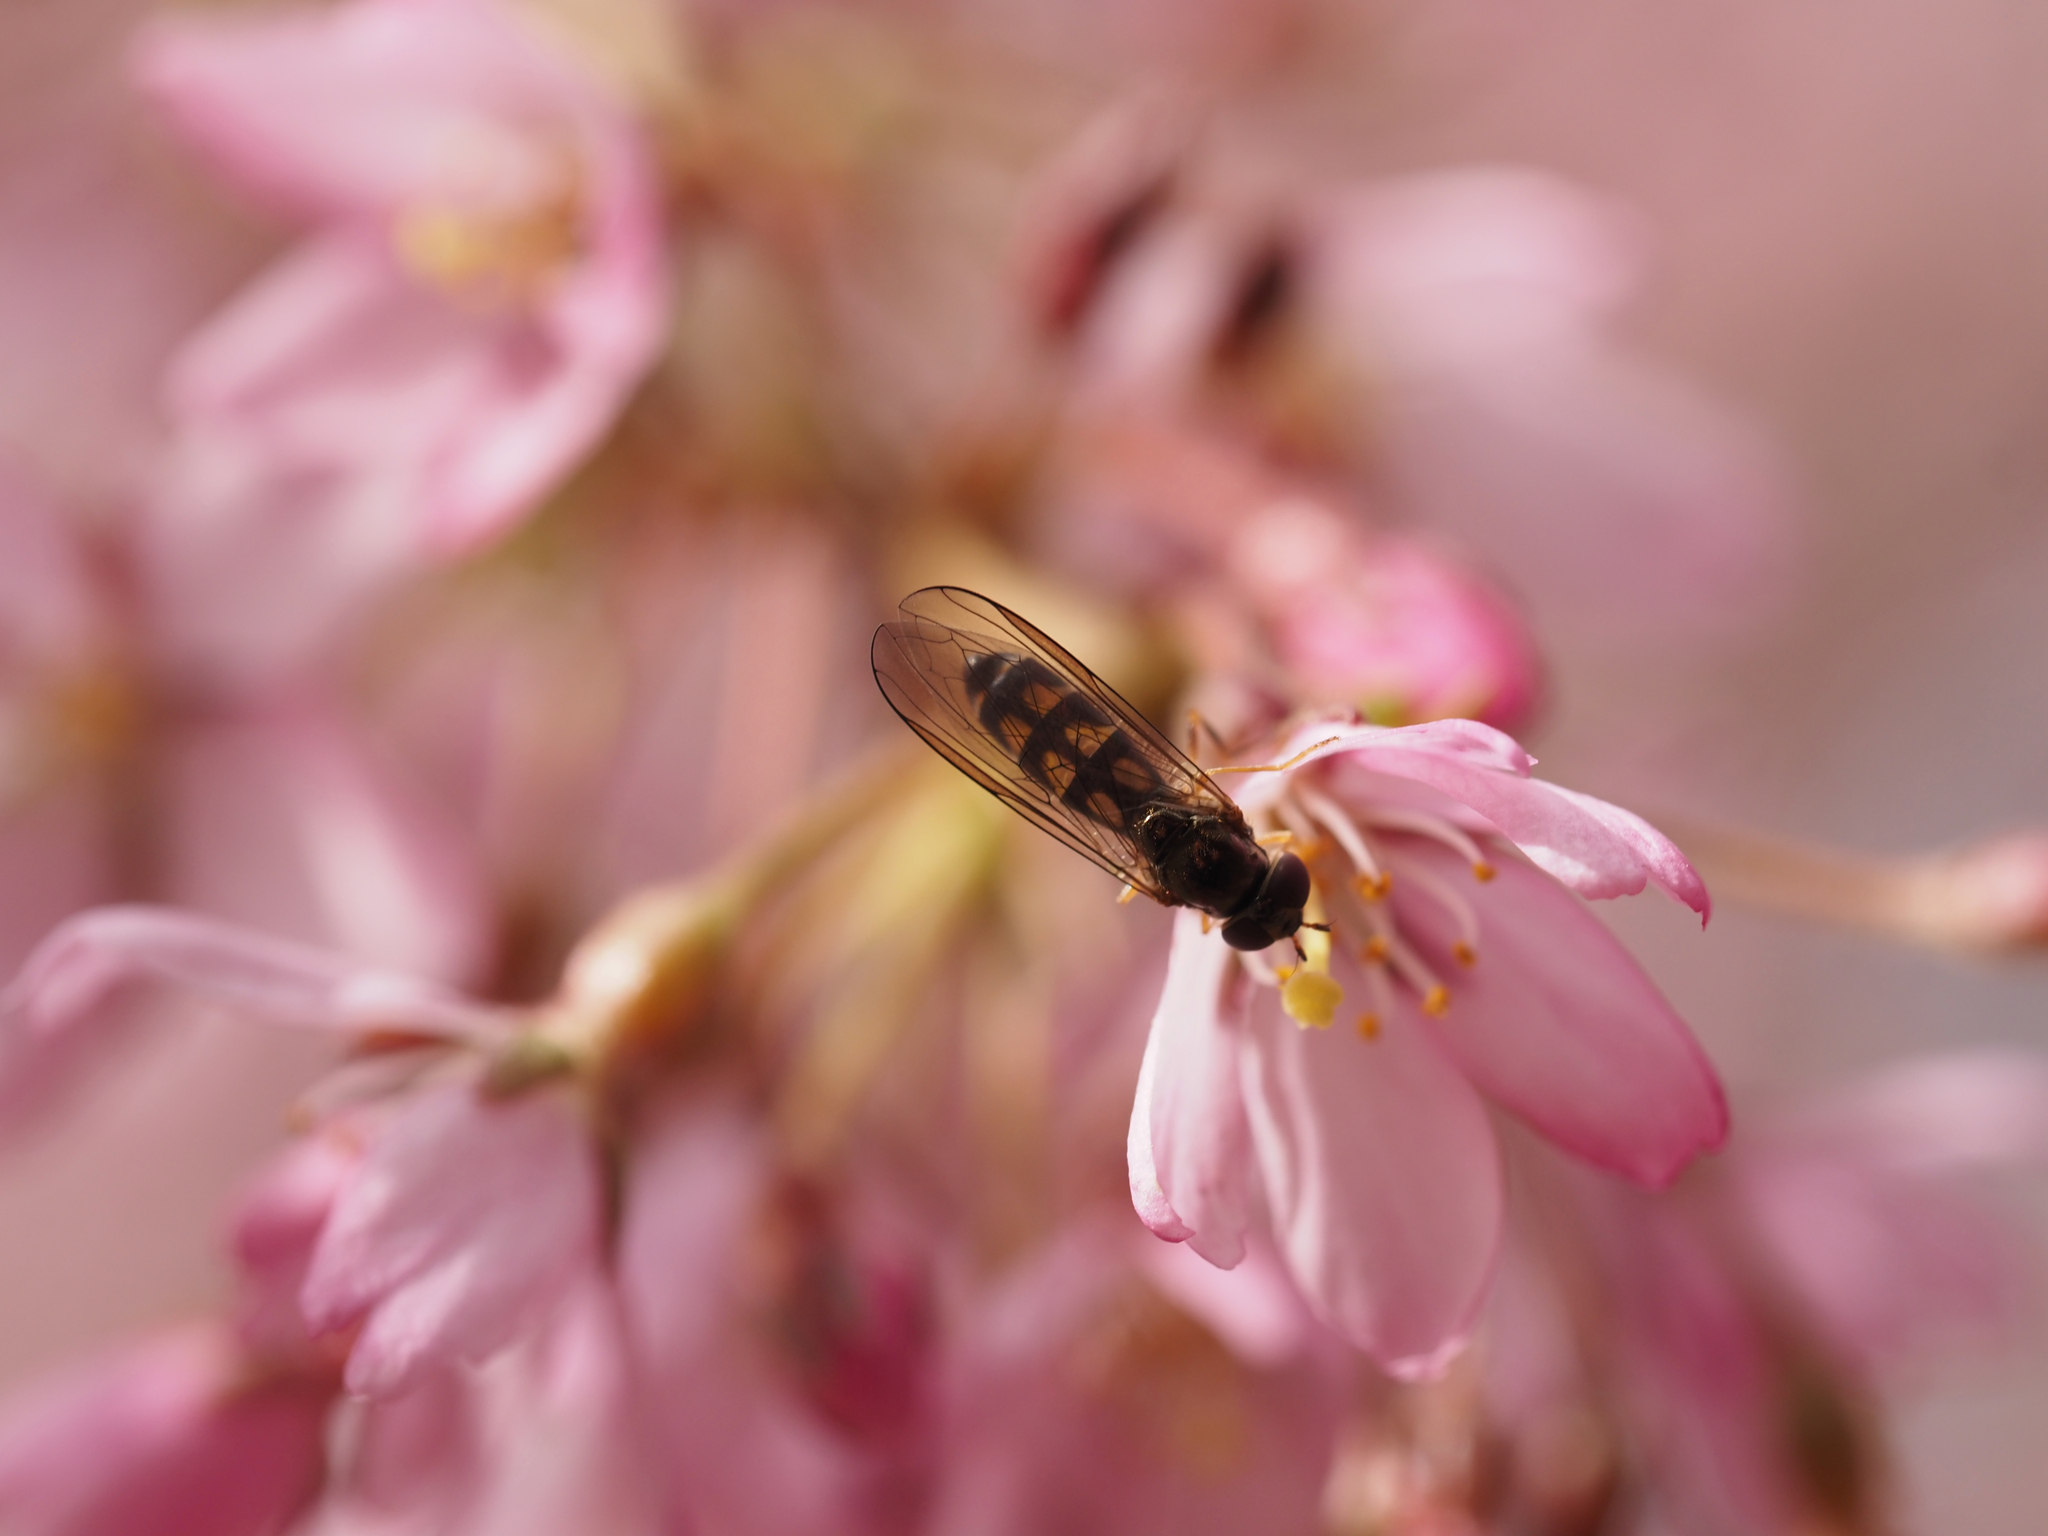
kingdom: Animalia
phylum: Arthropoda
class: Insecta
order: Diptera
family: Syrphidae
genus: Melanostoma
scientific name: Melanostoma mellina
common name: Hover fly
